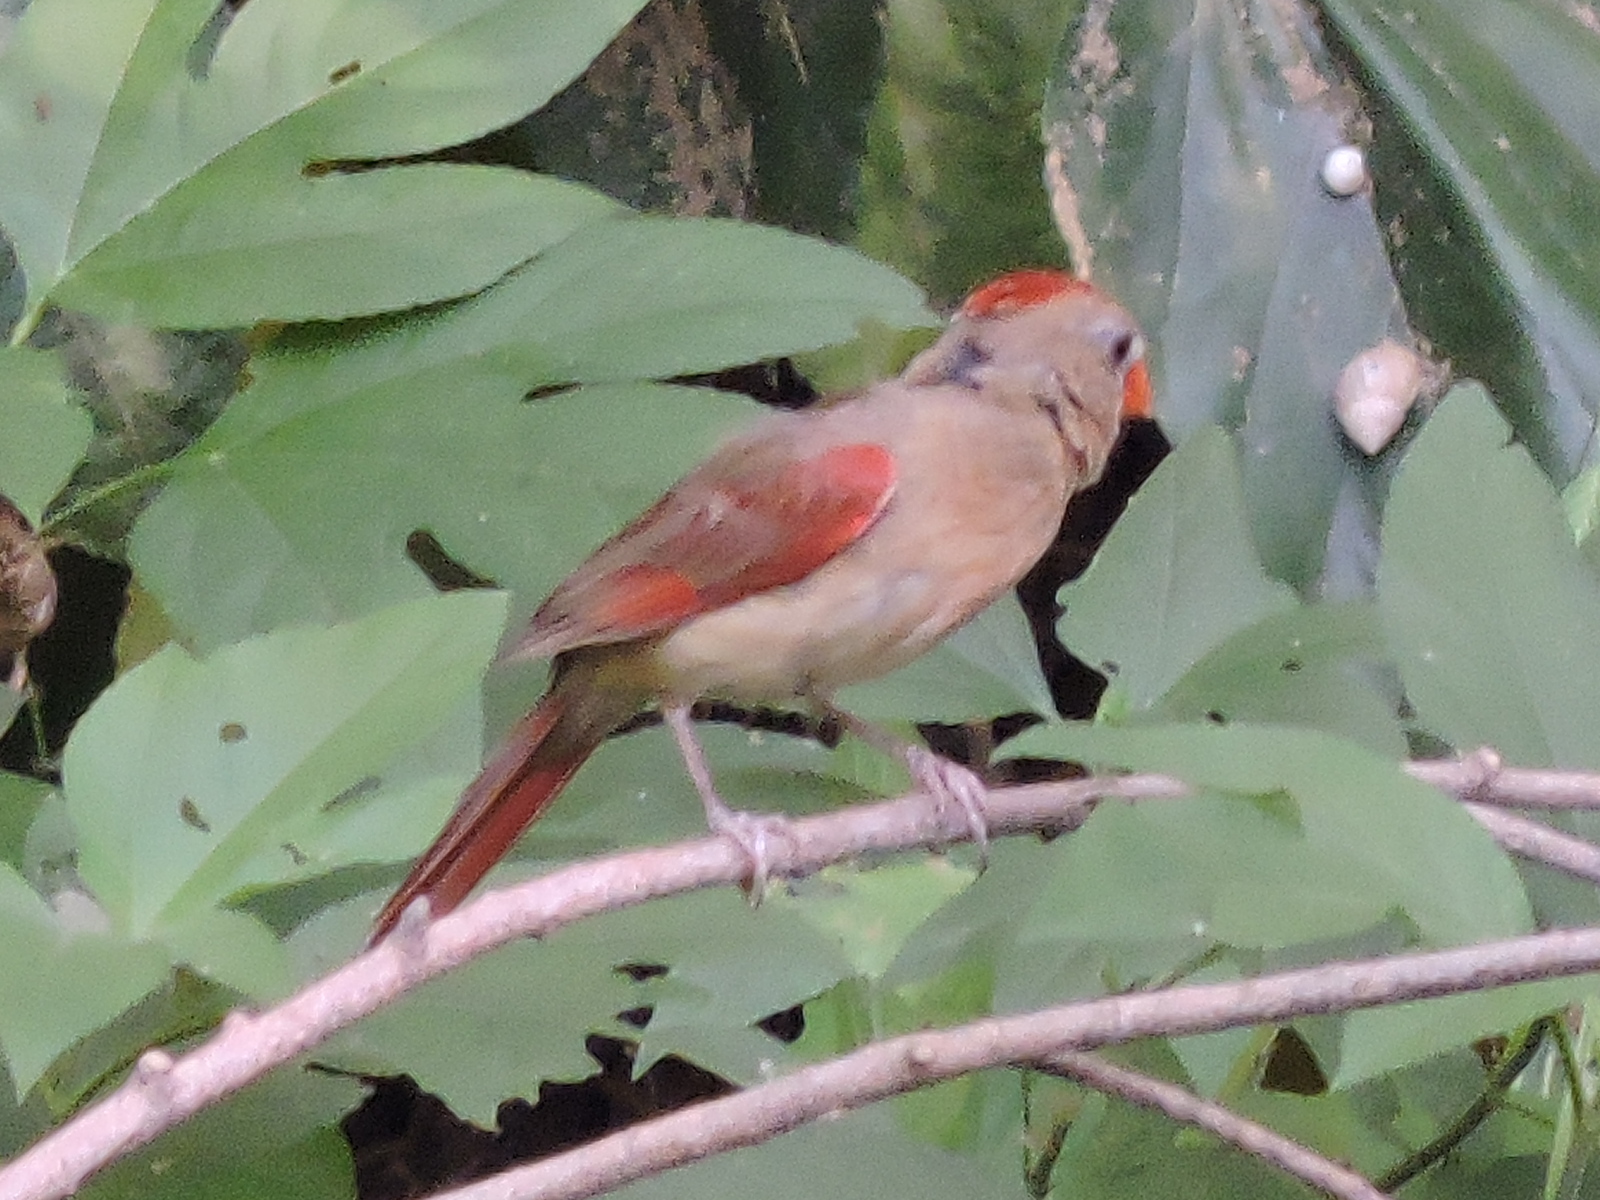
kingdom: Animalia
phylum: Chordata
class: Aves
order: Passeriformes
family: Cardinalidae
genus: Cardinalis
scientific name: Cardinalis cardinalis
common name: Northern cardinal
